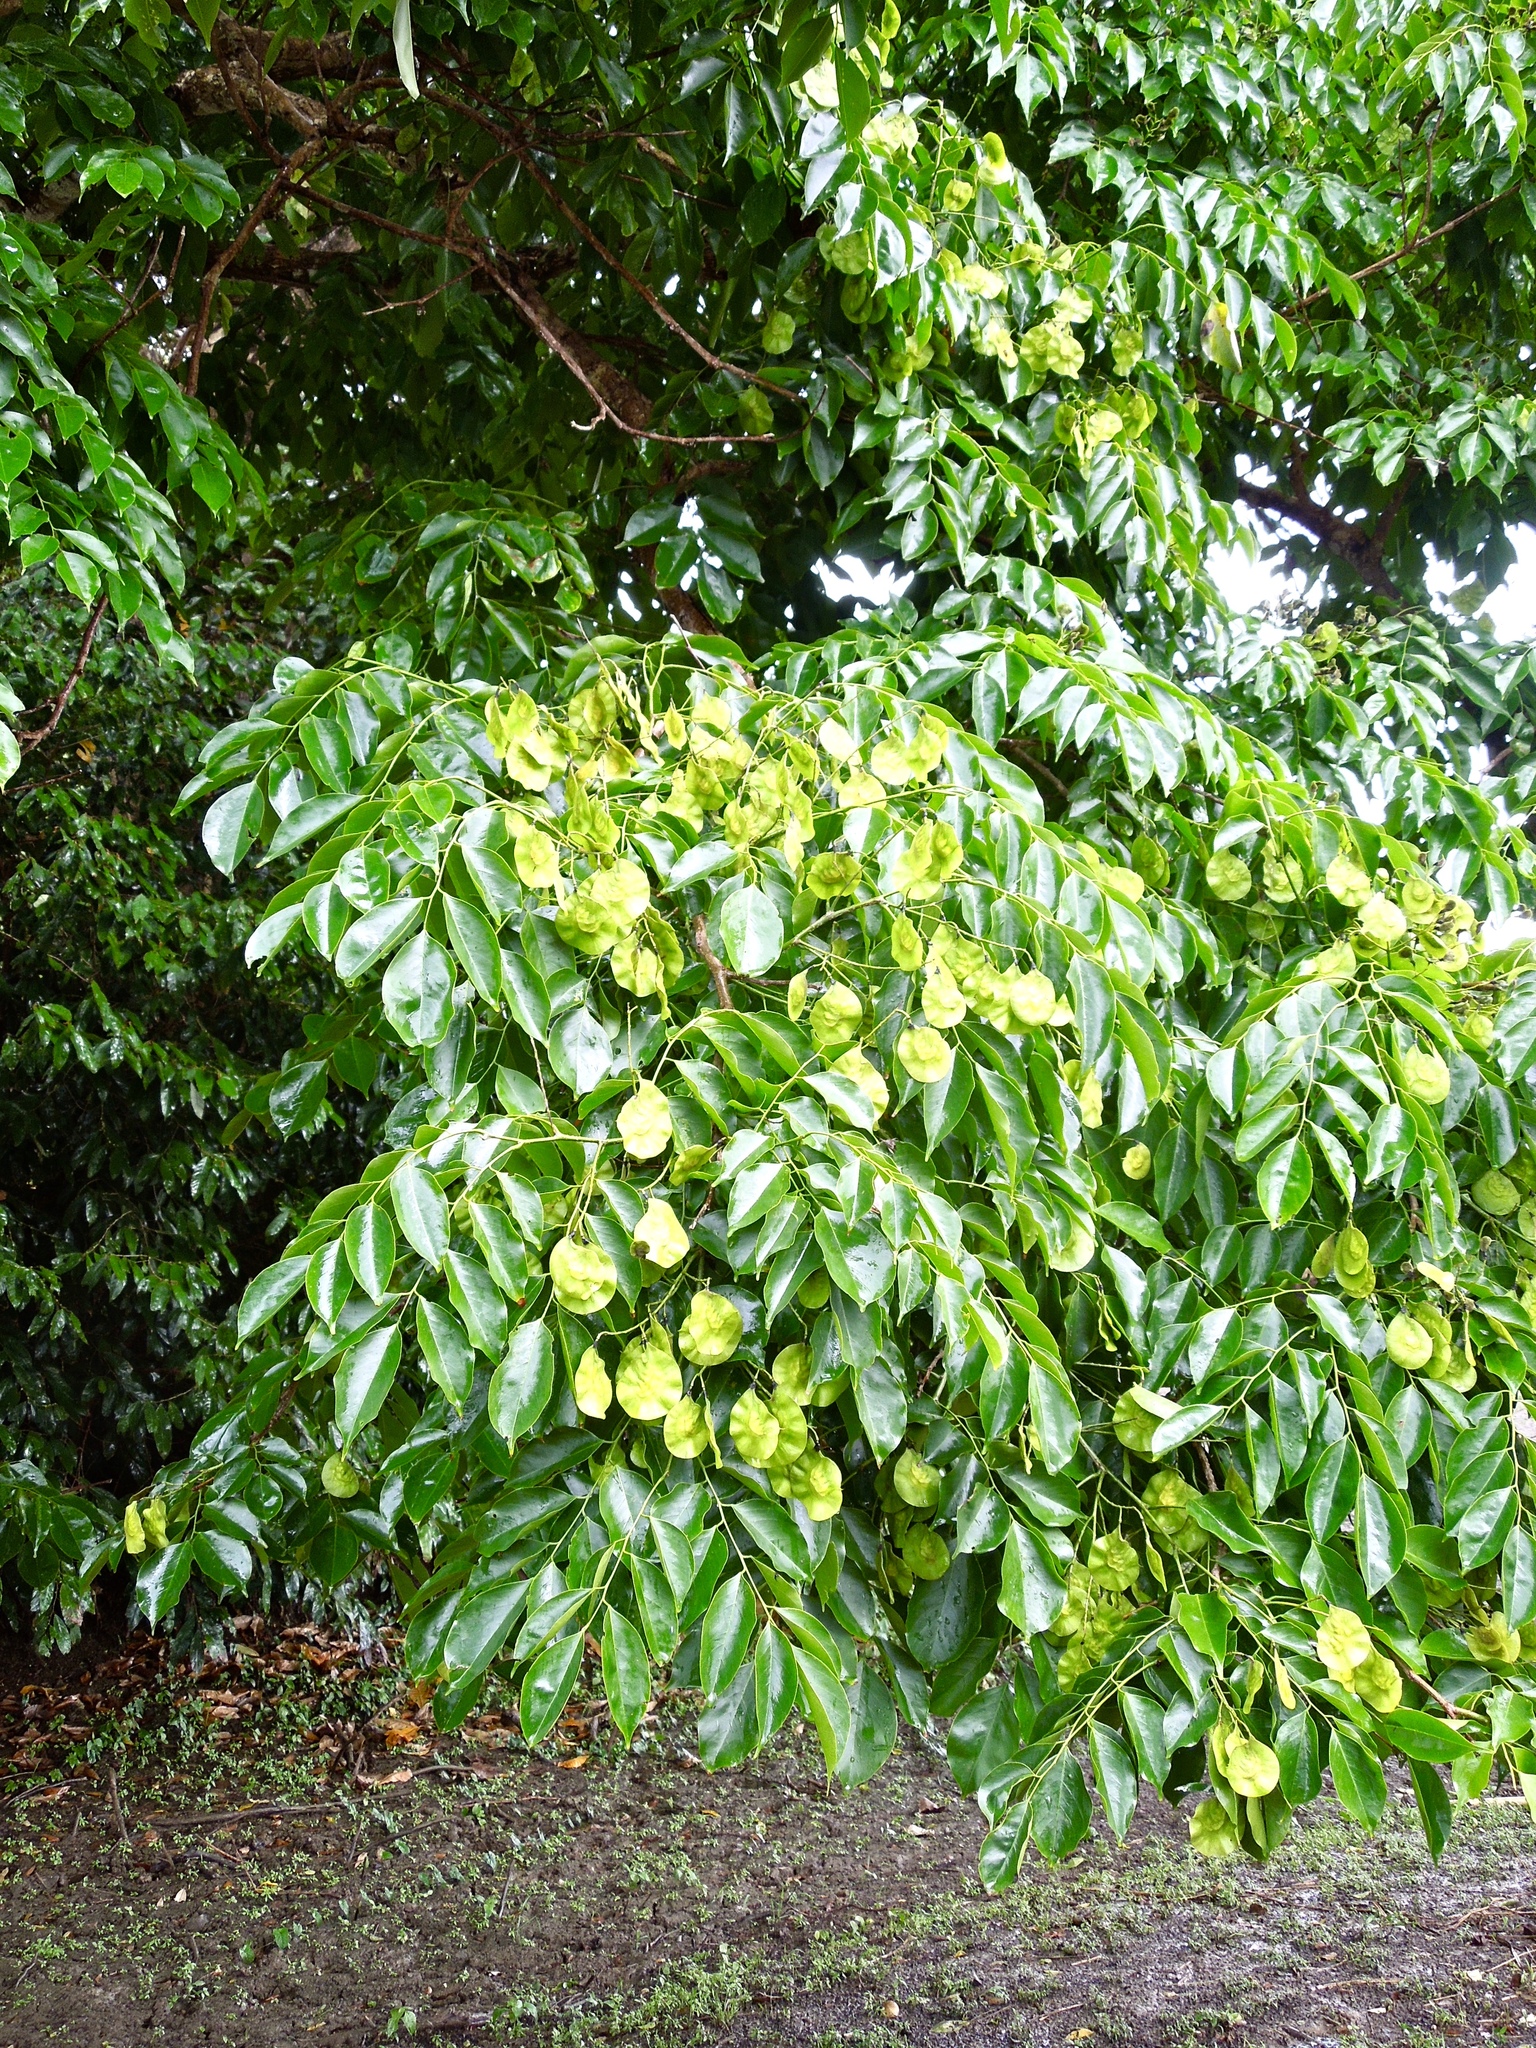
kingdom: Plantae
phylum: Tracheophyta
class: Magnoliopsida
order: Fabales
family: Fabaceae
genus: Pterocarpus
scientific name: Pterocarpus indicus
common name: Burmese rosewood
